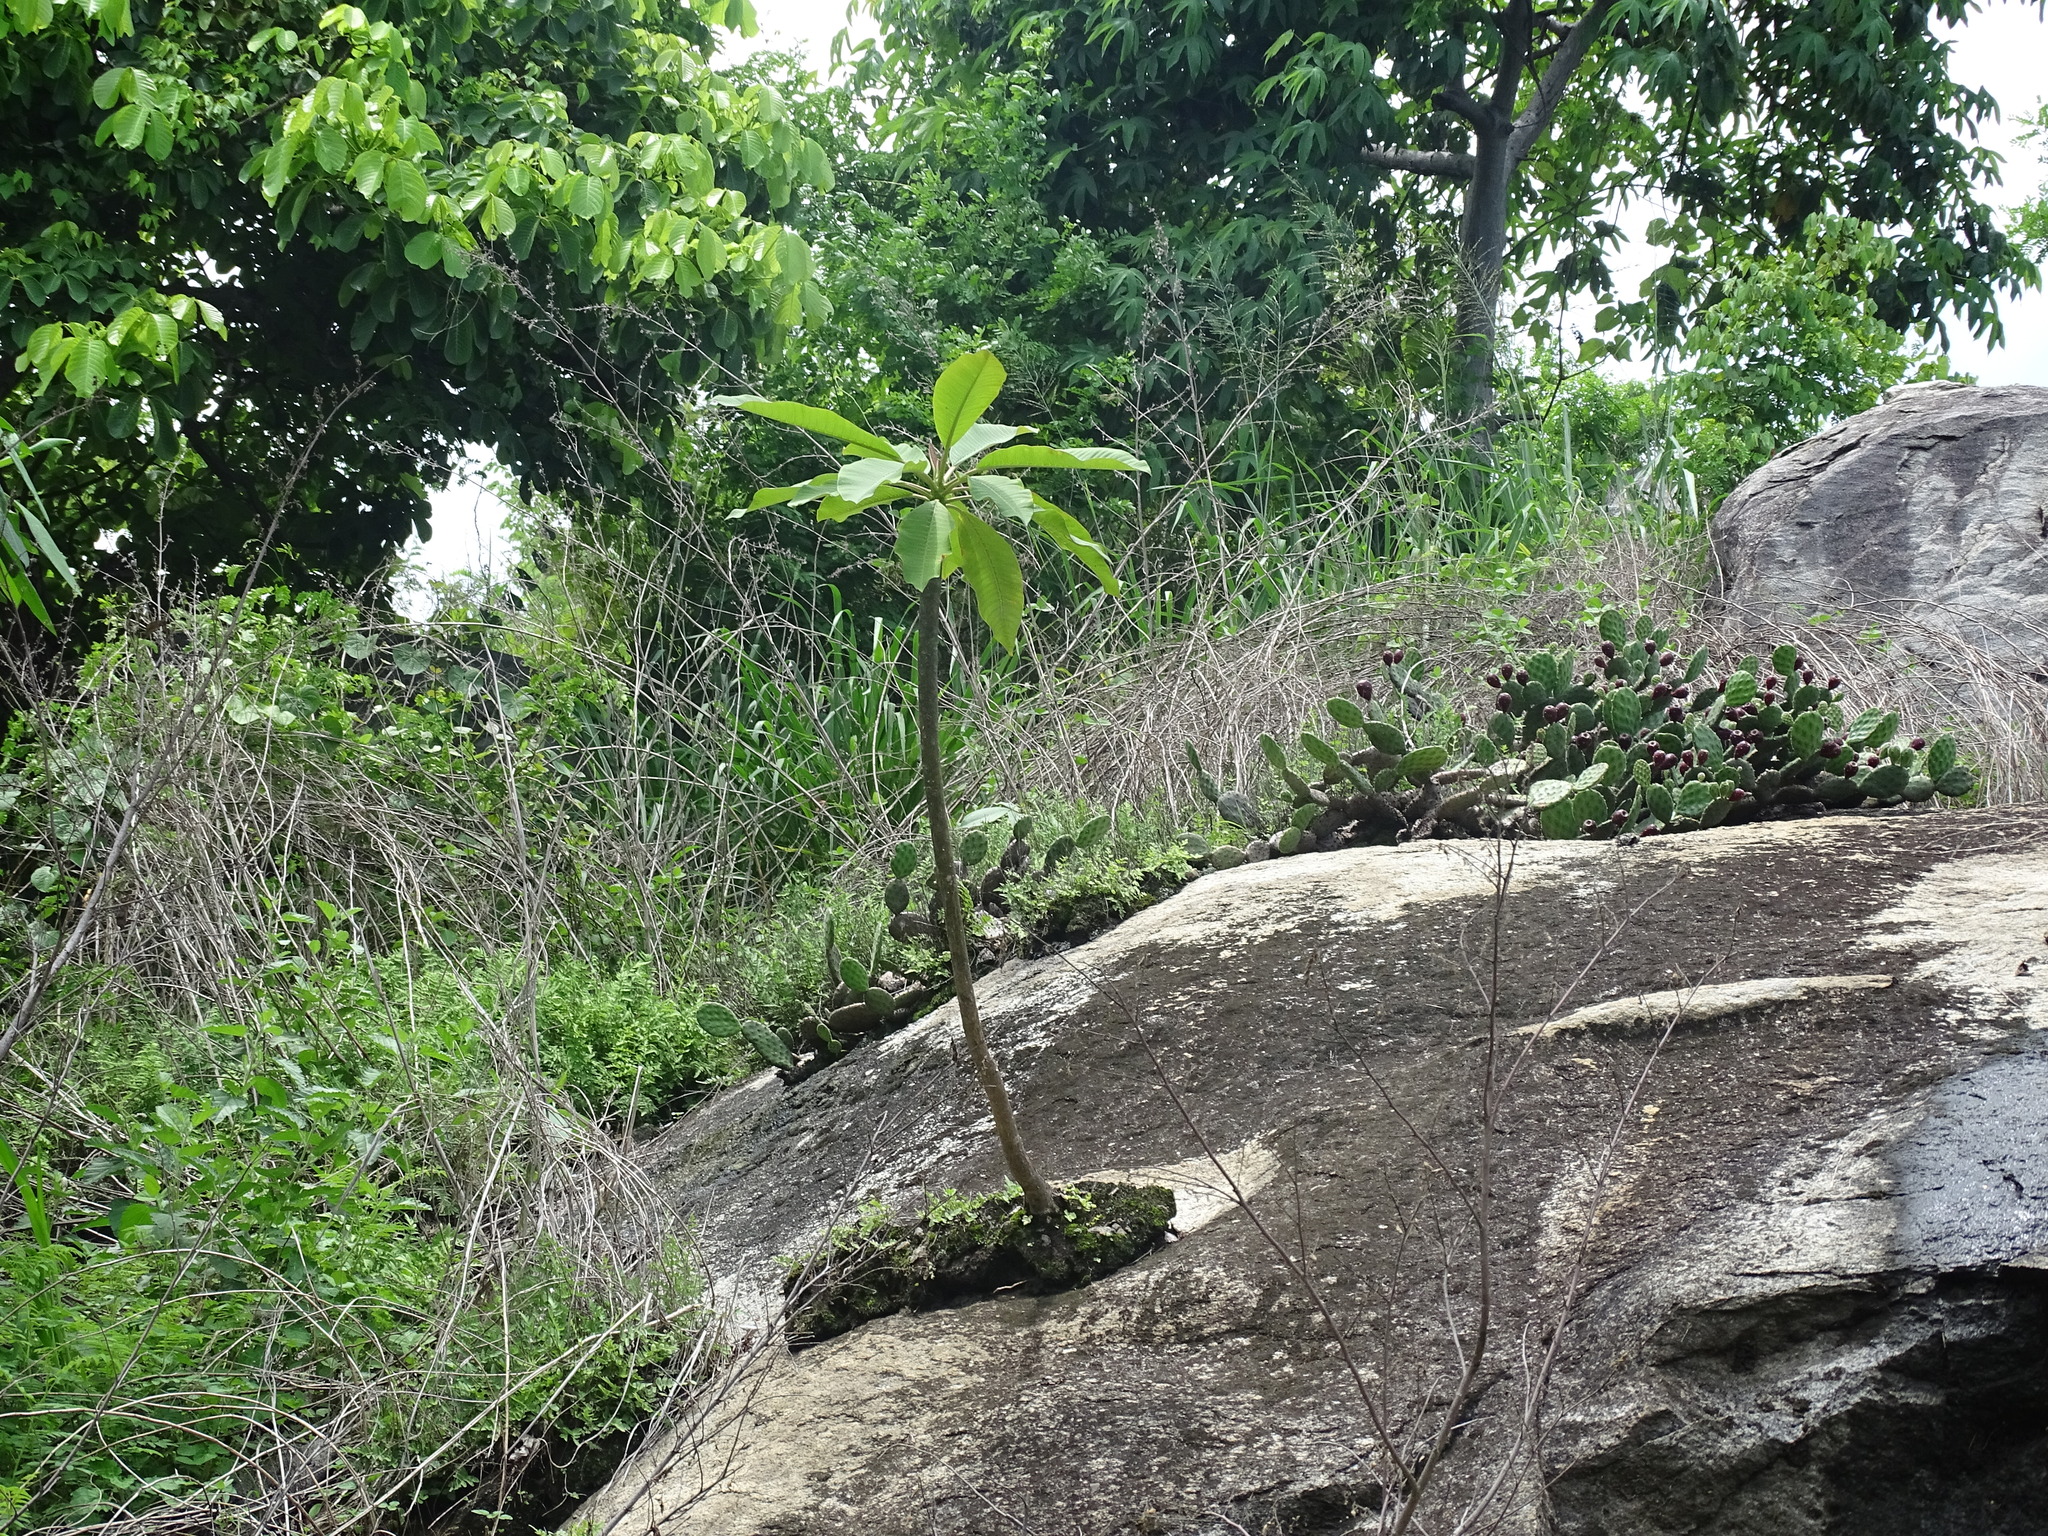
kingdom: Plantae
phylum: Tracheophyta
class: Magnoliopsida
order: Gentianales
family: Apocynaceae
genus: Plumeria
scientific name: Plumeria rubra
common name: Pagoda-tree
